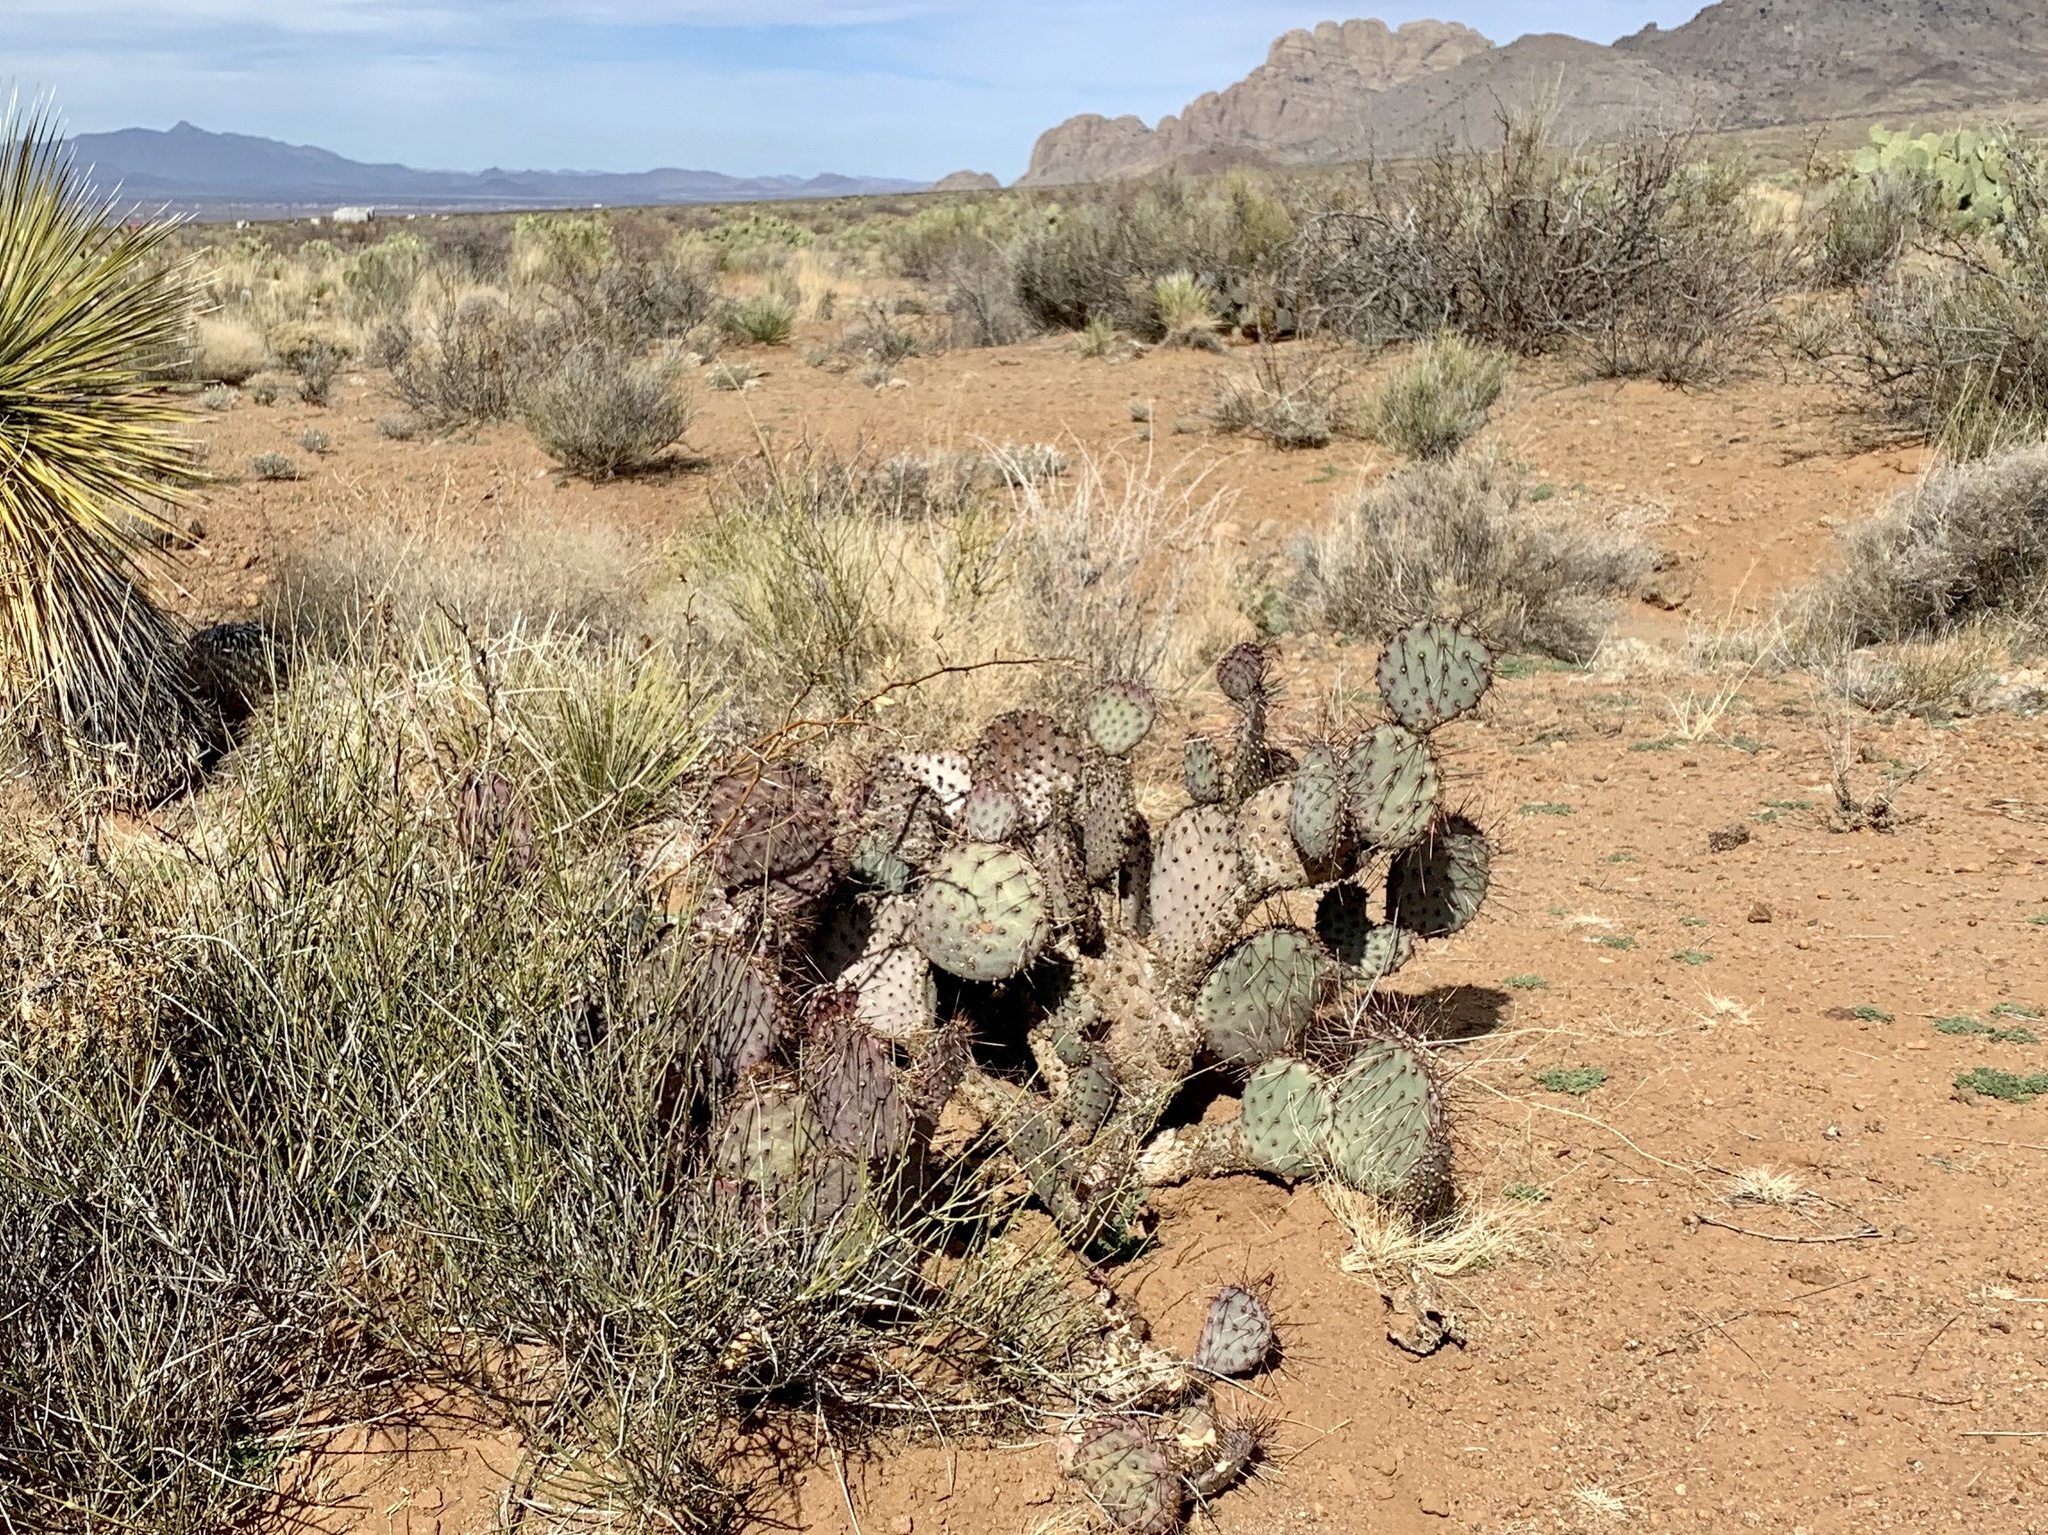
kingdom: Plantae
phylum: Tracheophyta
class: Magnoliopsida
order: Caryophyllales
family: Cactaceae
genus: Opuntia
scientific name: Opuntia macrocentra
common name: Purple prickly-pear
